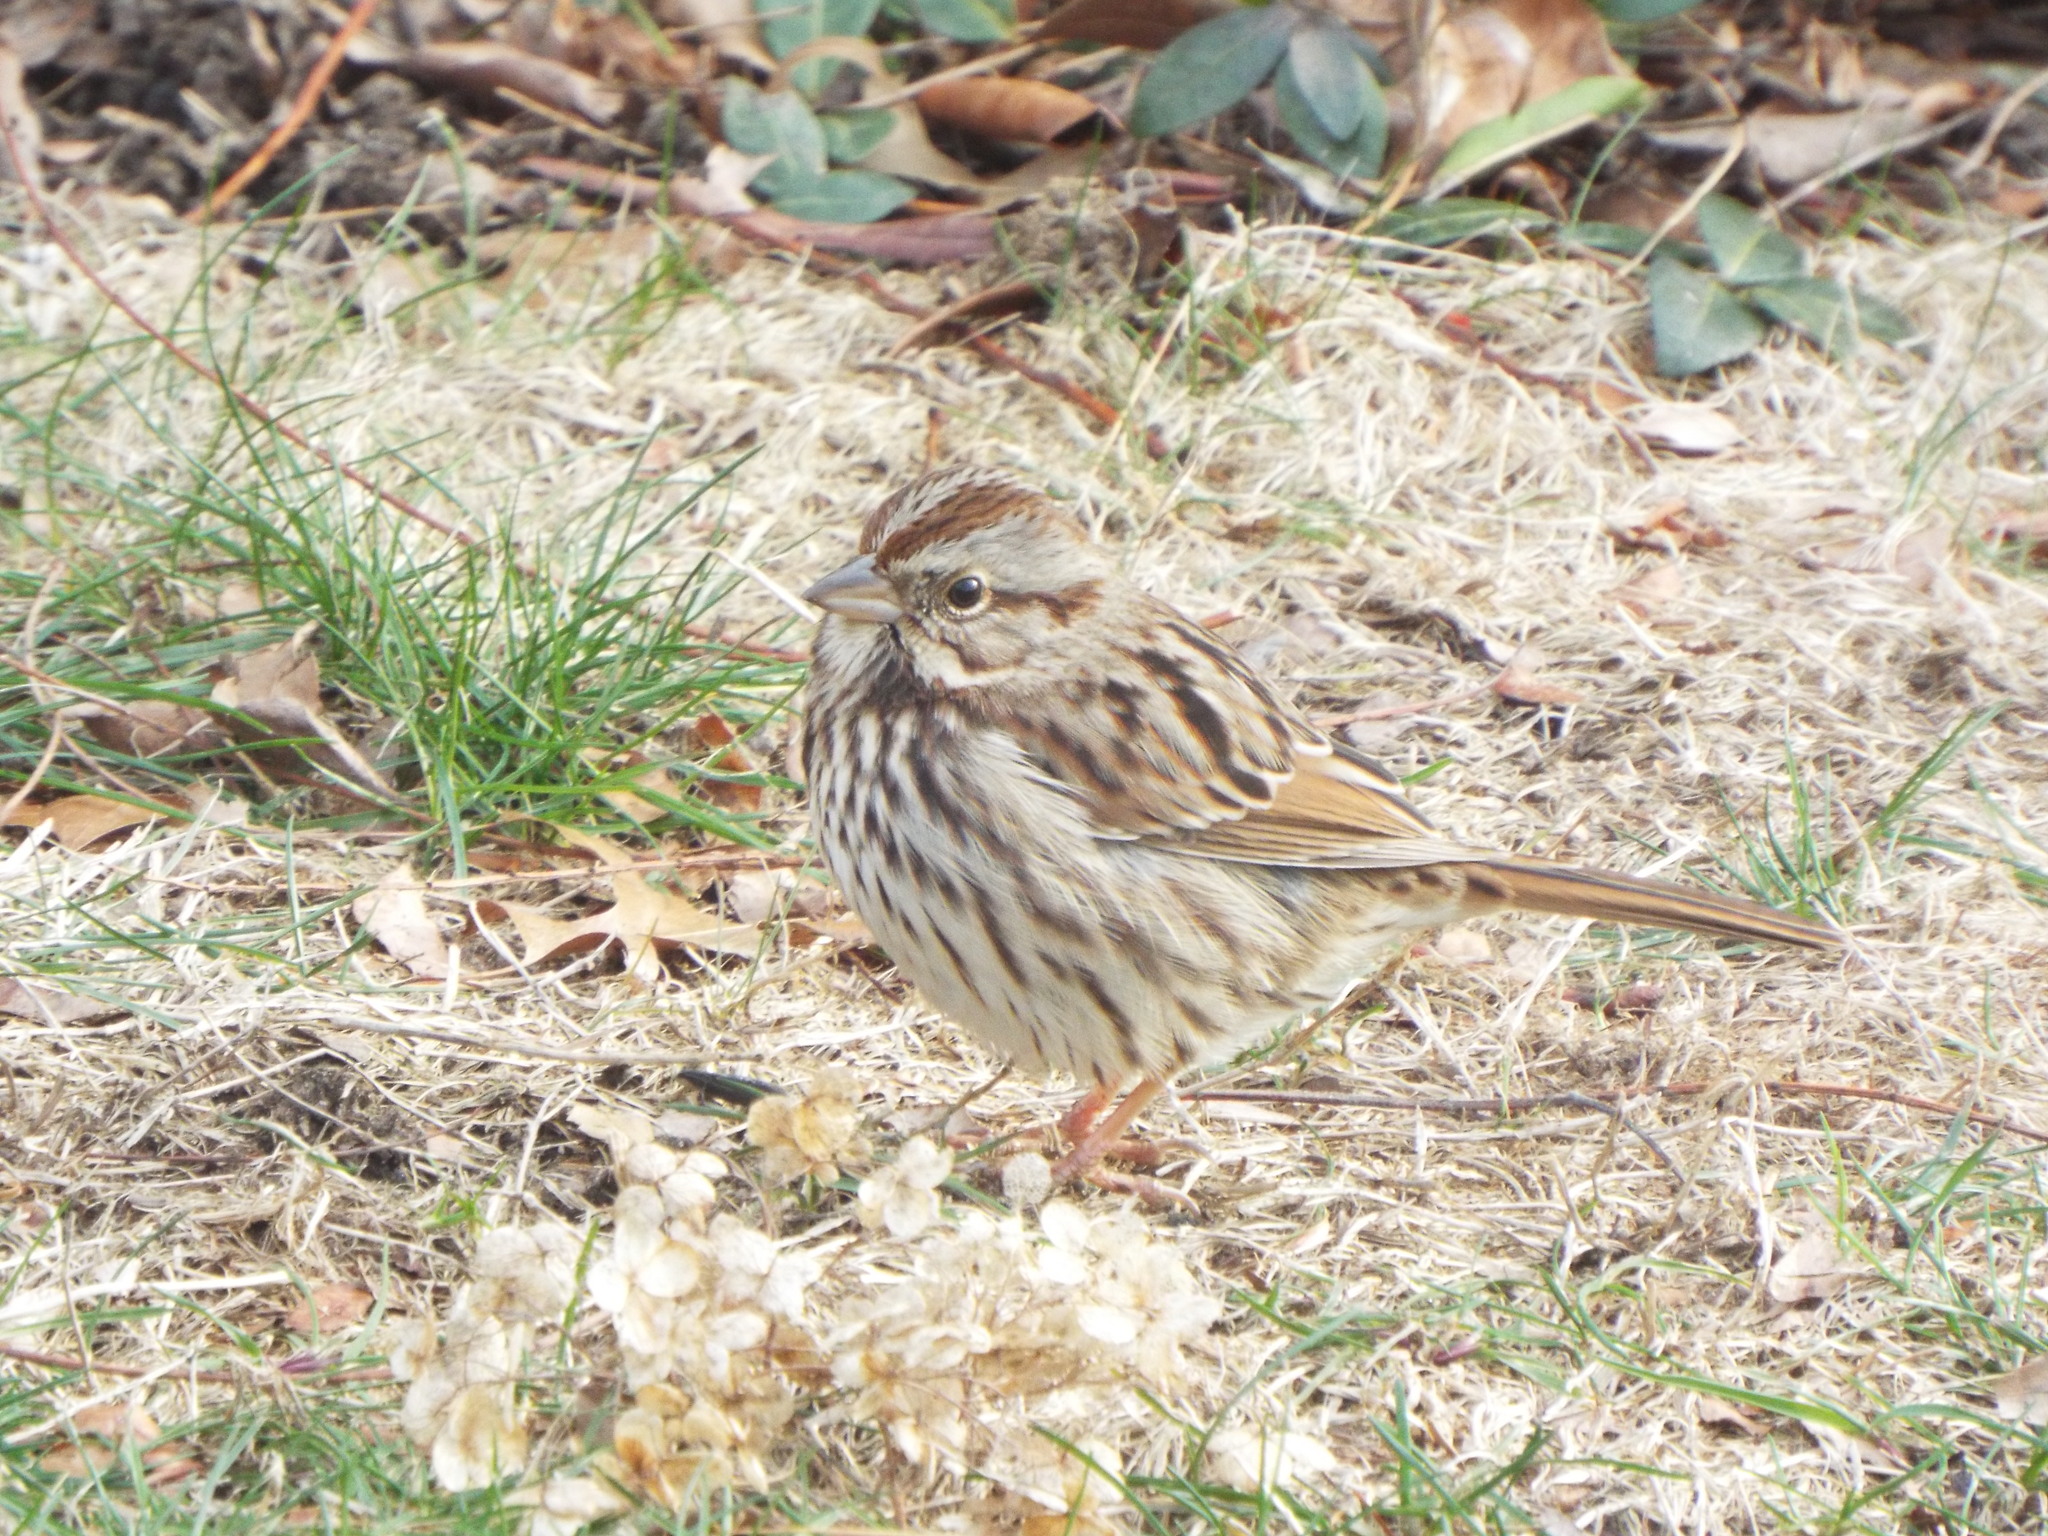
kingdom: Animalia
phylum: Chordata
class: Aves
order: Passeriformes
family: Passerellidae
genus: Melospiza
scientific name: Melospiza melodia
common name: Song sparrow
